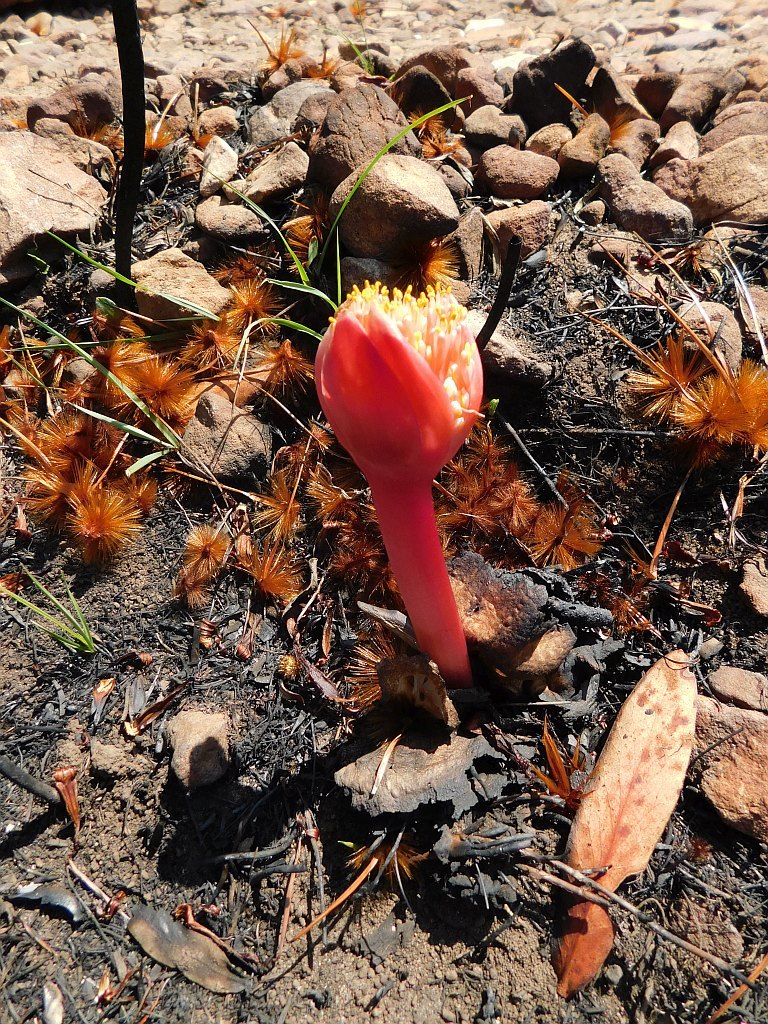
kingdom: Plantae
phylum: Tracheophyta
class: Liliopsida
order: Asparagales
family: Amaryllidaceae
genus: Haemanthus
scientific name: Haemanthus sanguineus
